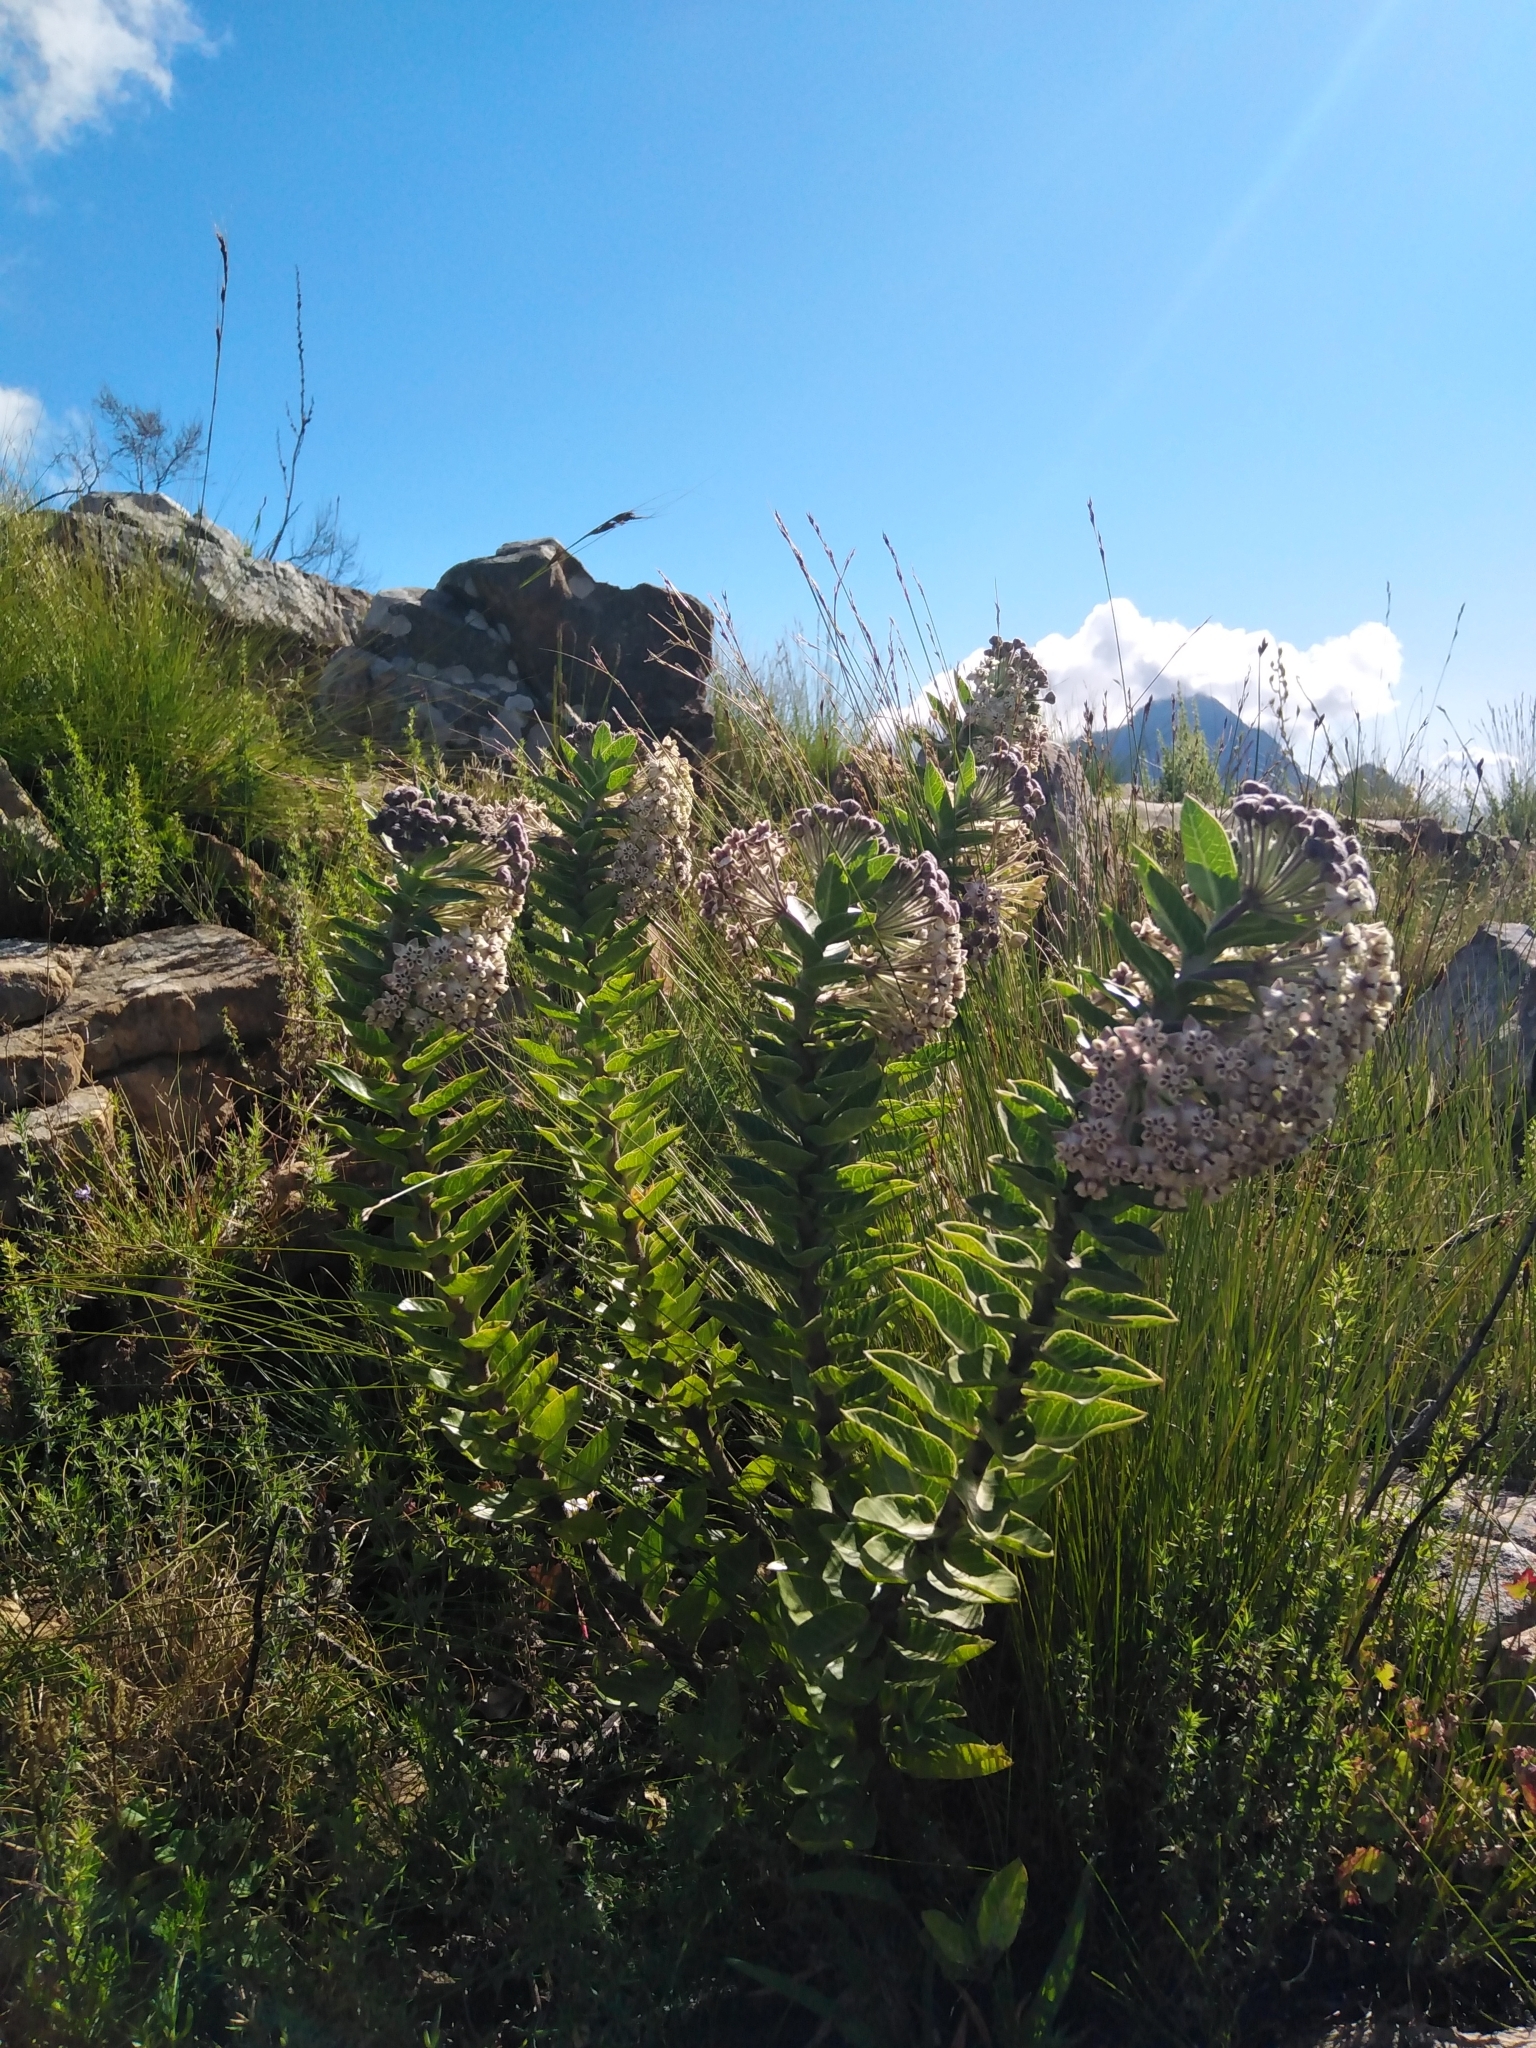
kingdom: Plantae
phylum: Tracheophyta
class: Magnoliopsida
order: Gentianales
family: Apocynaceae
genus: Gomphocarpus
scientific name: Gomphocarpus cancellatus
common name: Wild cotton
